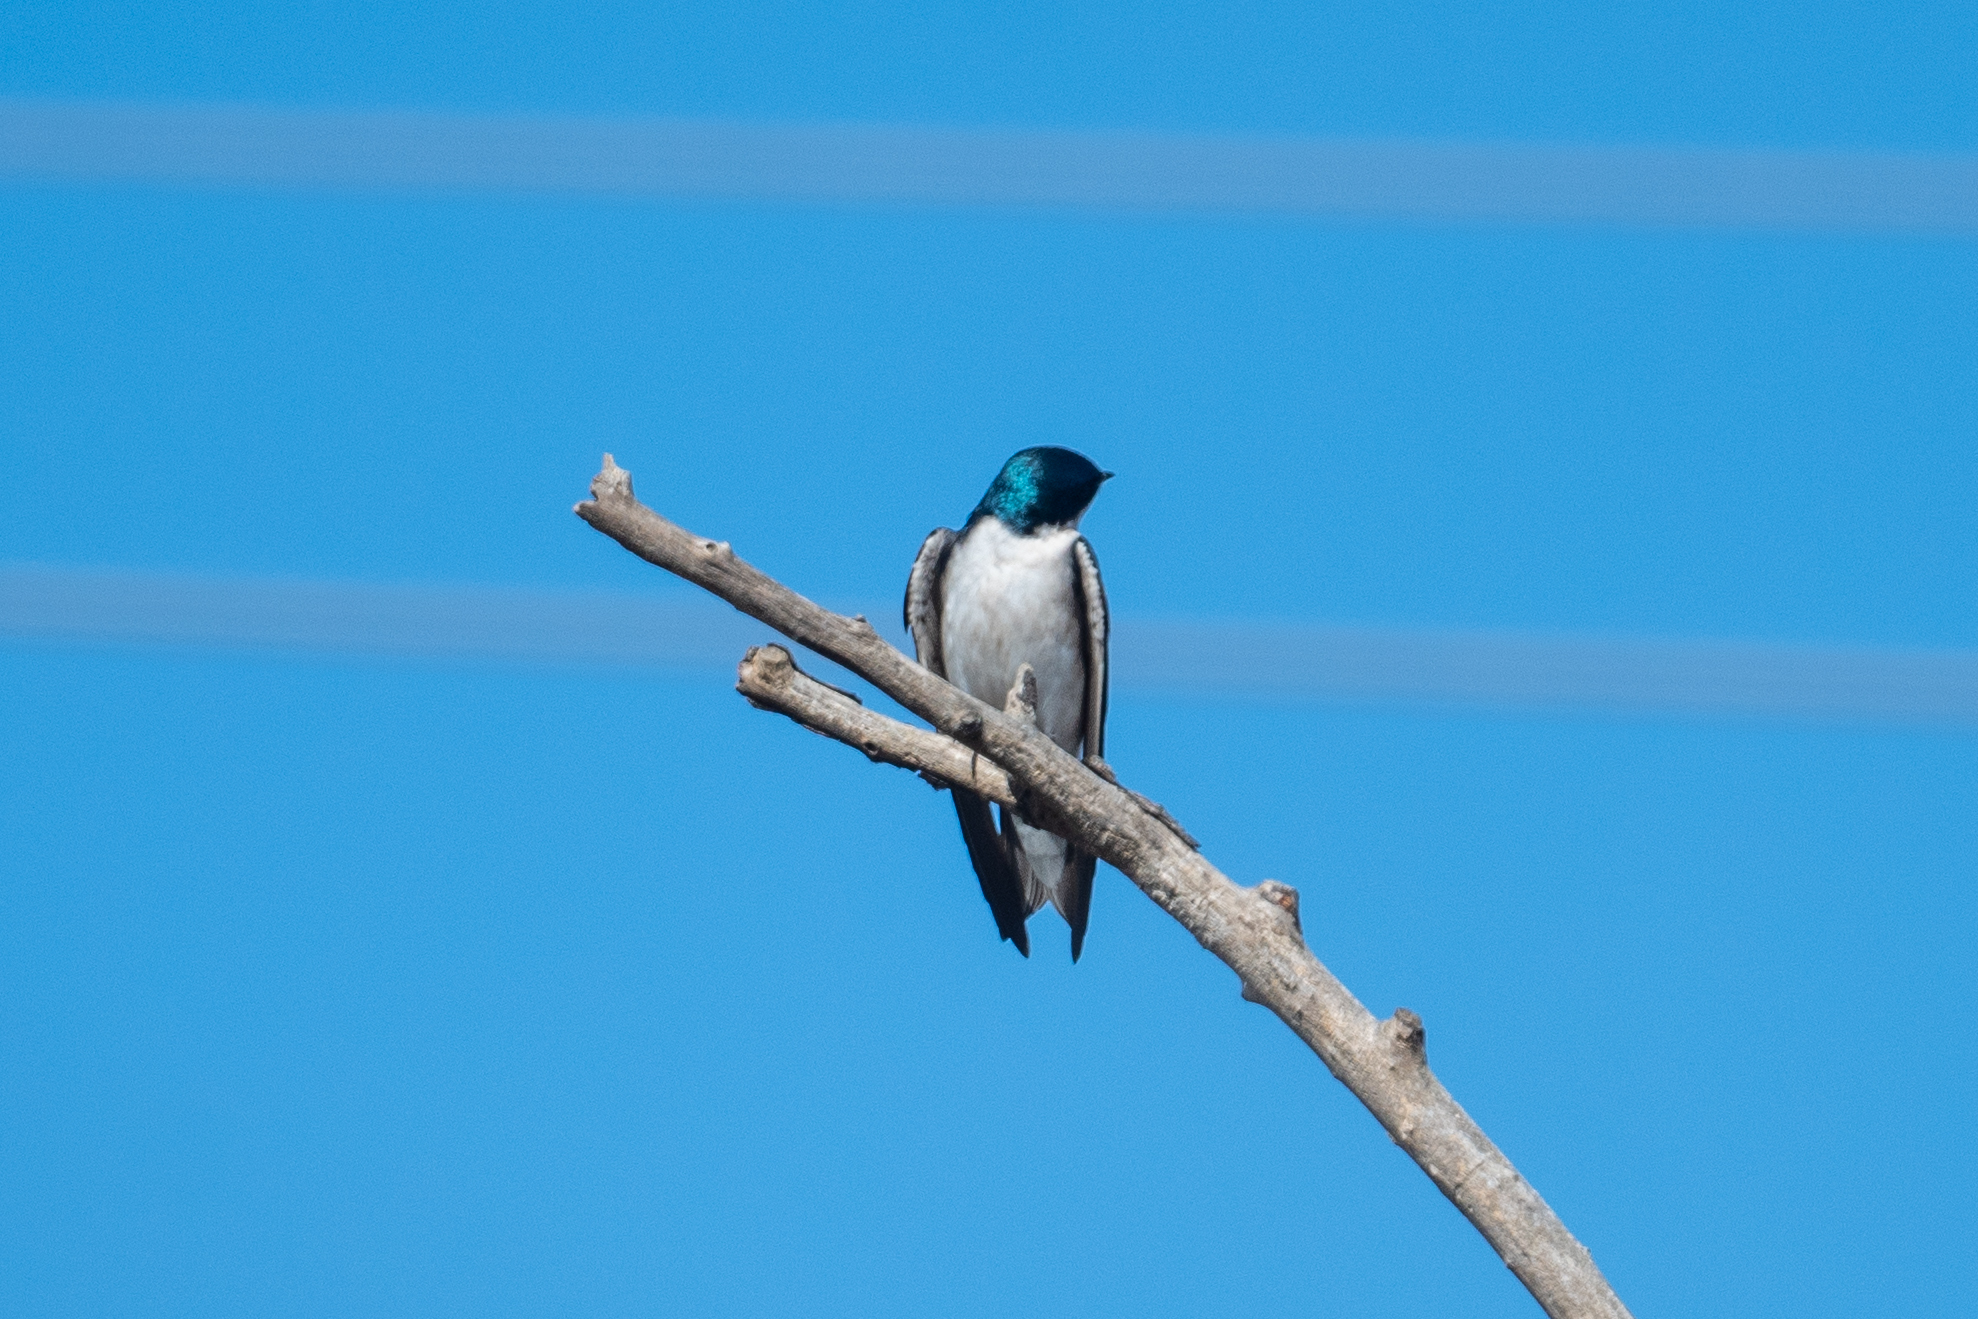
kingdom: Animalia
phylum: Chordata
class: Aves
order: Passeriformes
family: Hirundinidae
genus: Tachycineta
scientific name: Tachycineta bicolor
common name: Tree swallow
